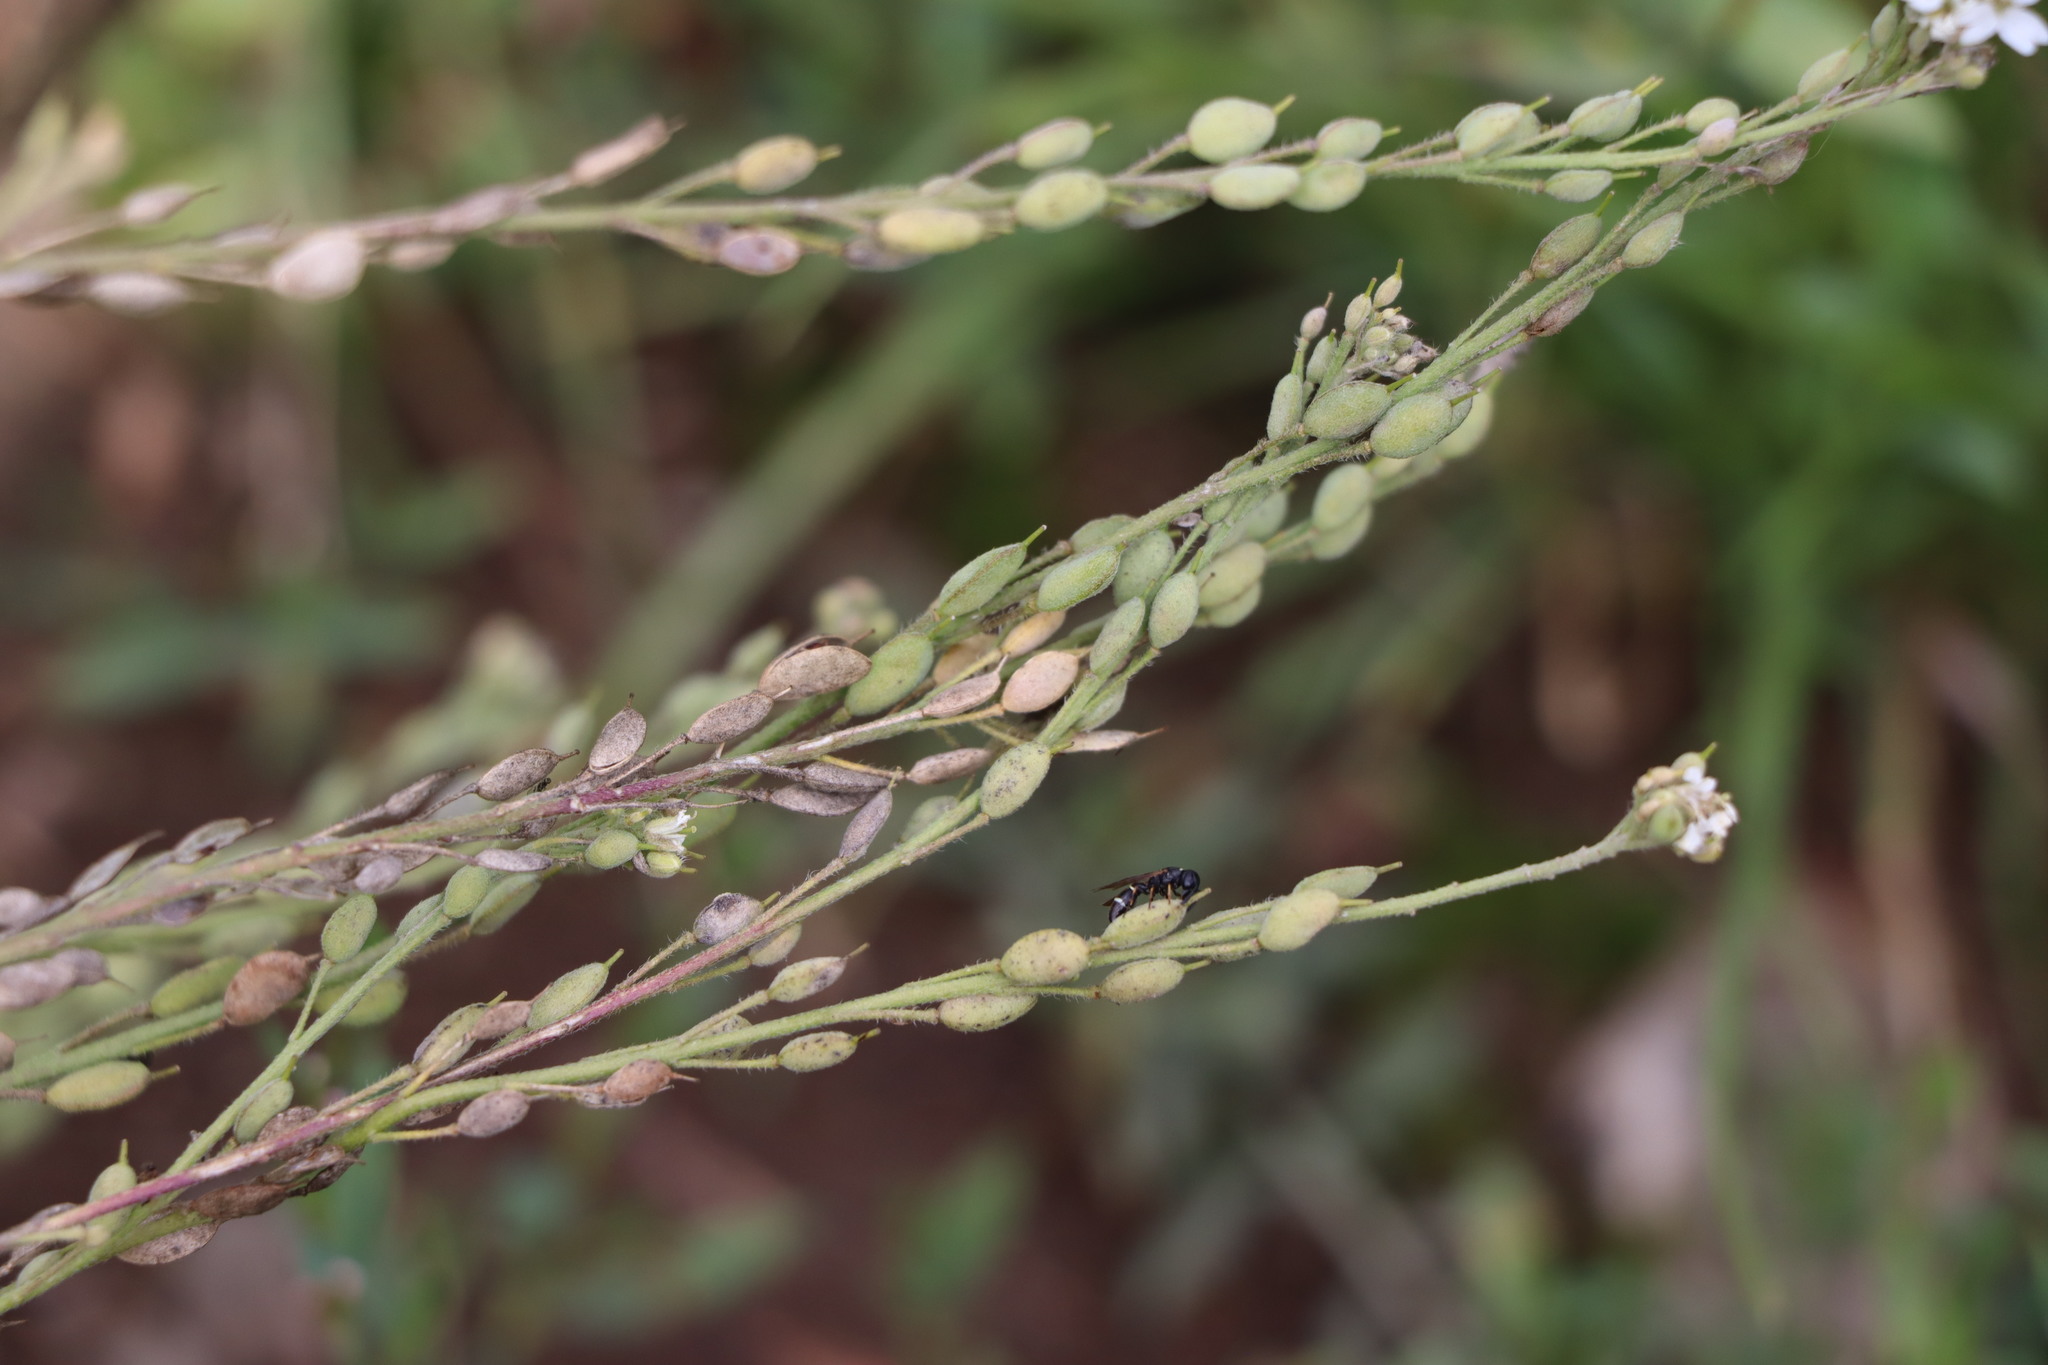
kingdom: Plantae
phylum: Tracheophyta
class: Magnoliopsida
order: Brassicales
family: Brassicaceae
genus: Berteroa
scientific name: Berteroa incana
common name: Hoary alison
